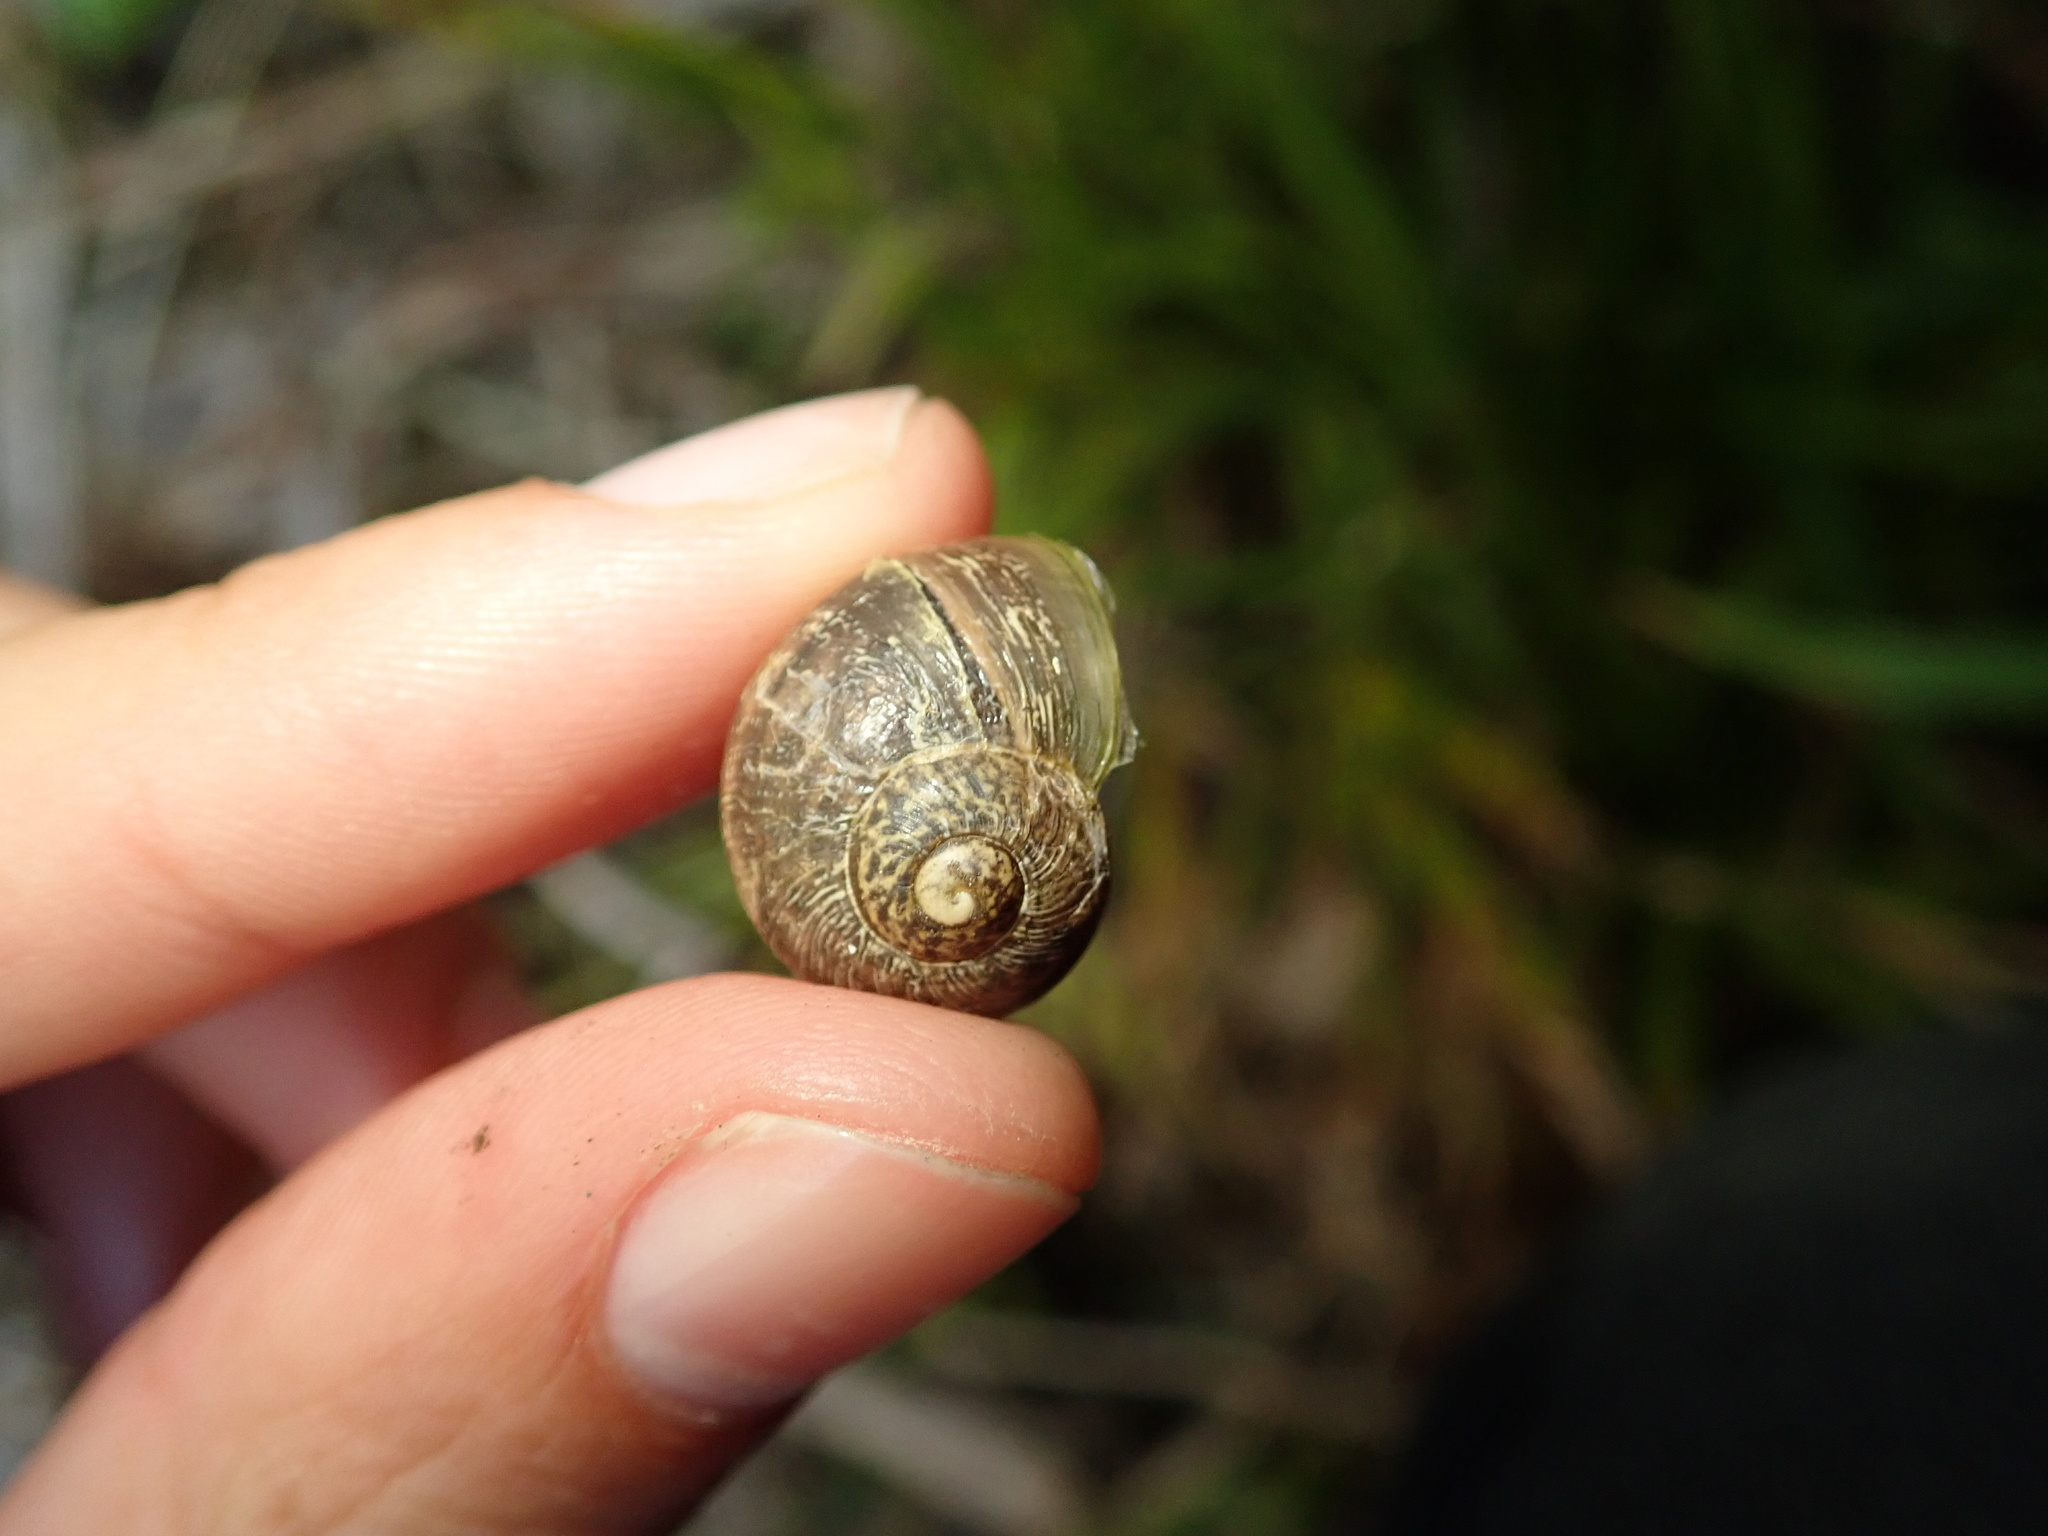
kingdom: Animalia
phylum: Mollusca
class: Gastropoda
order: Stylommatophora
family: Helicidae
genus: Cornu
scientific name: Cornu aspersum
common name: Brown garden snail
